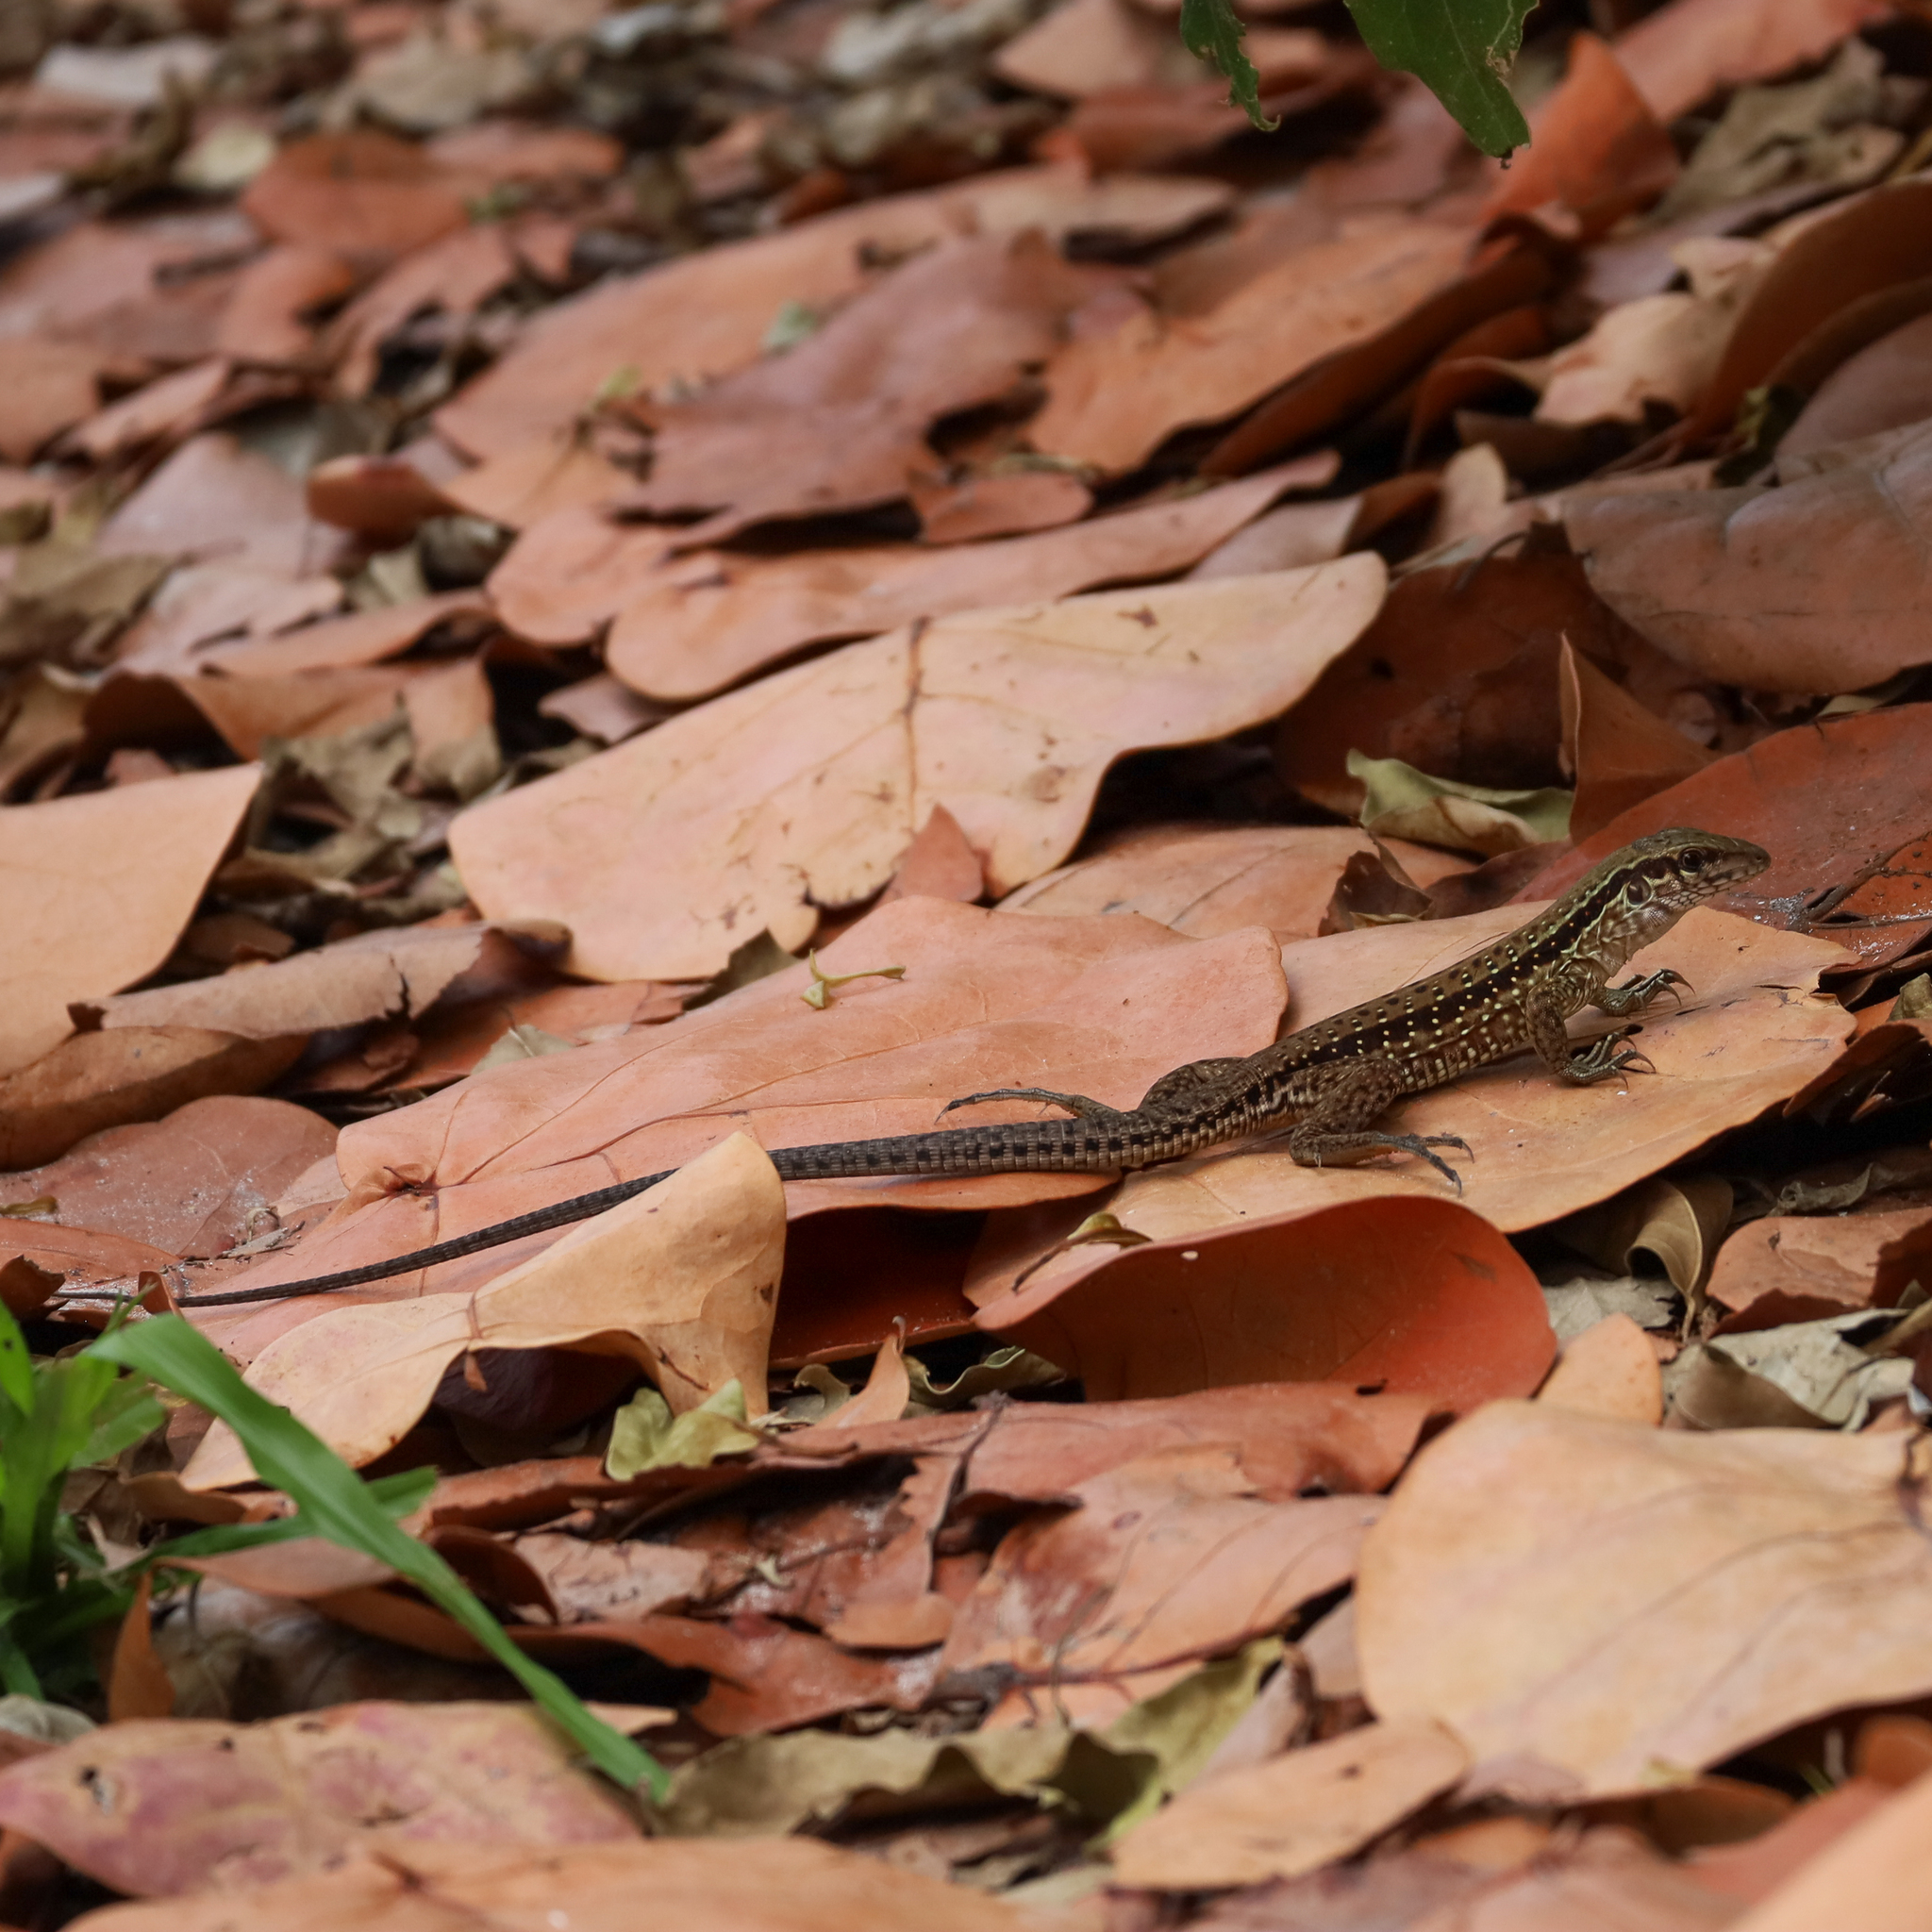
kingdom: Animalia
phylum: Chordata
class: Squamata
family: Teiidae
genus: Ameiva
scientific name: Ameiva ameiva
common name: Giant ameiva
